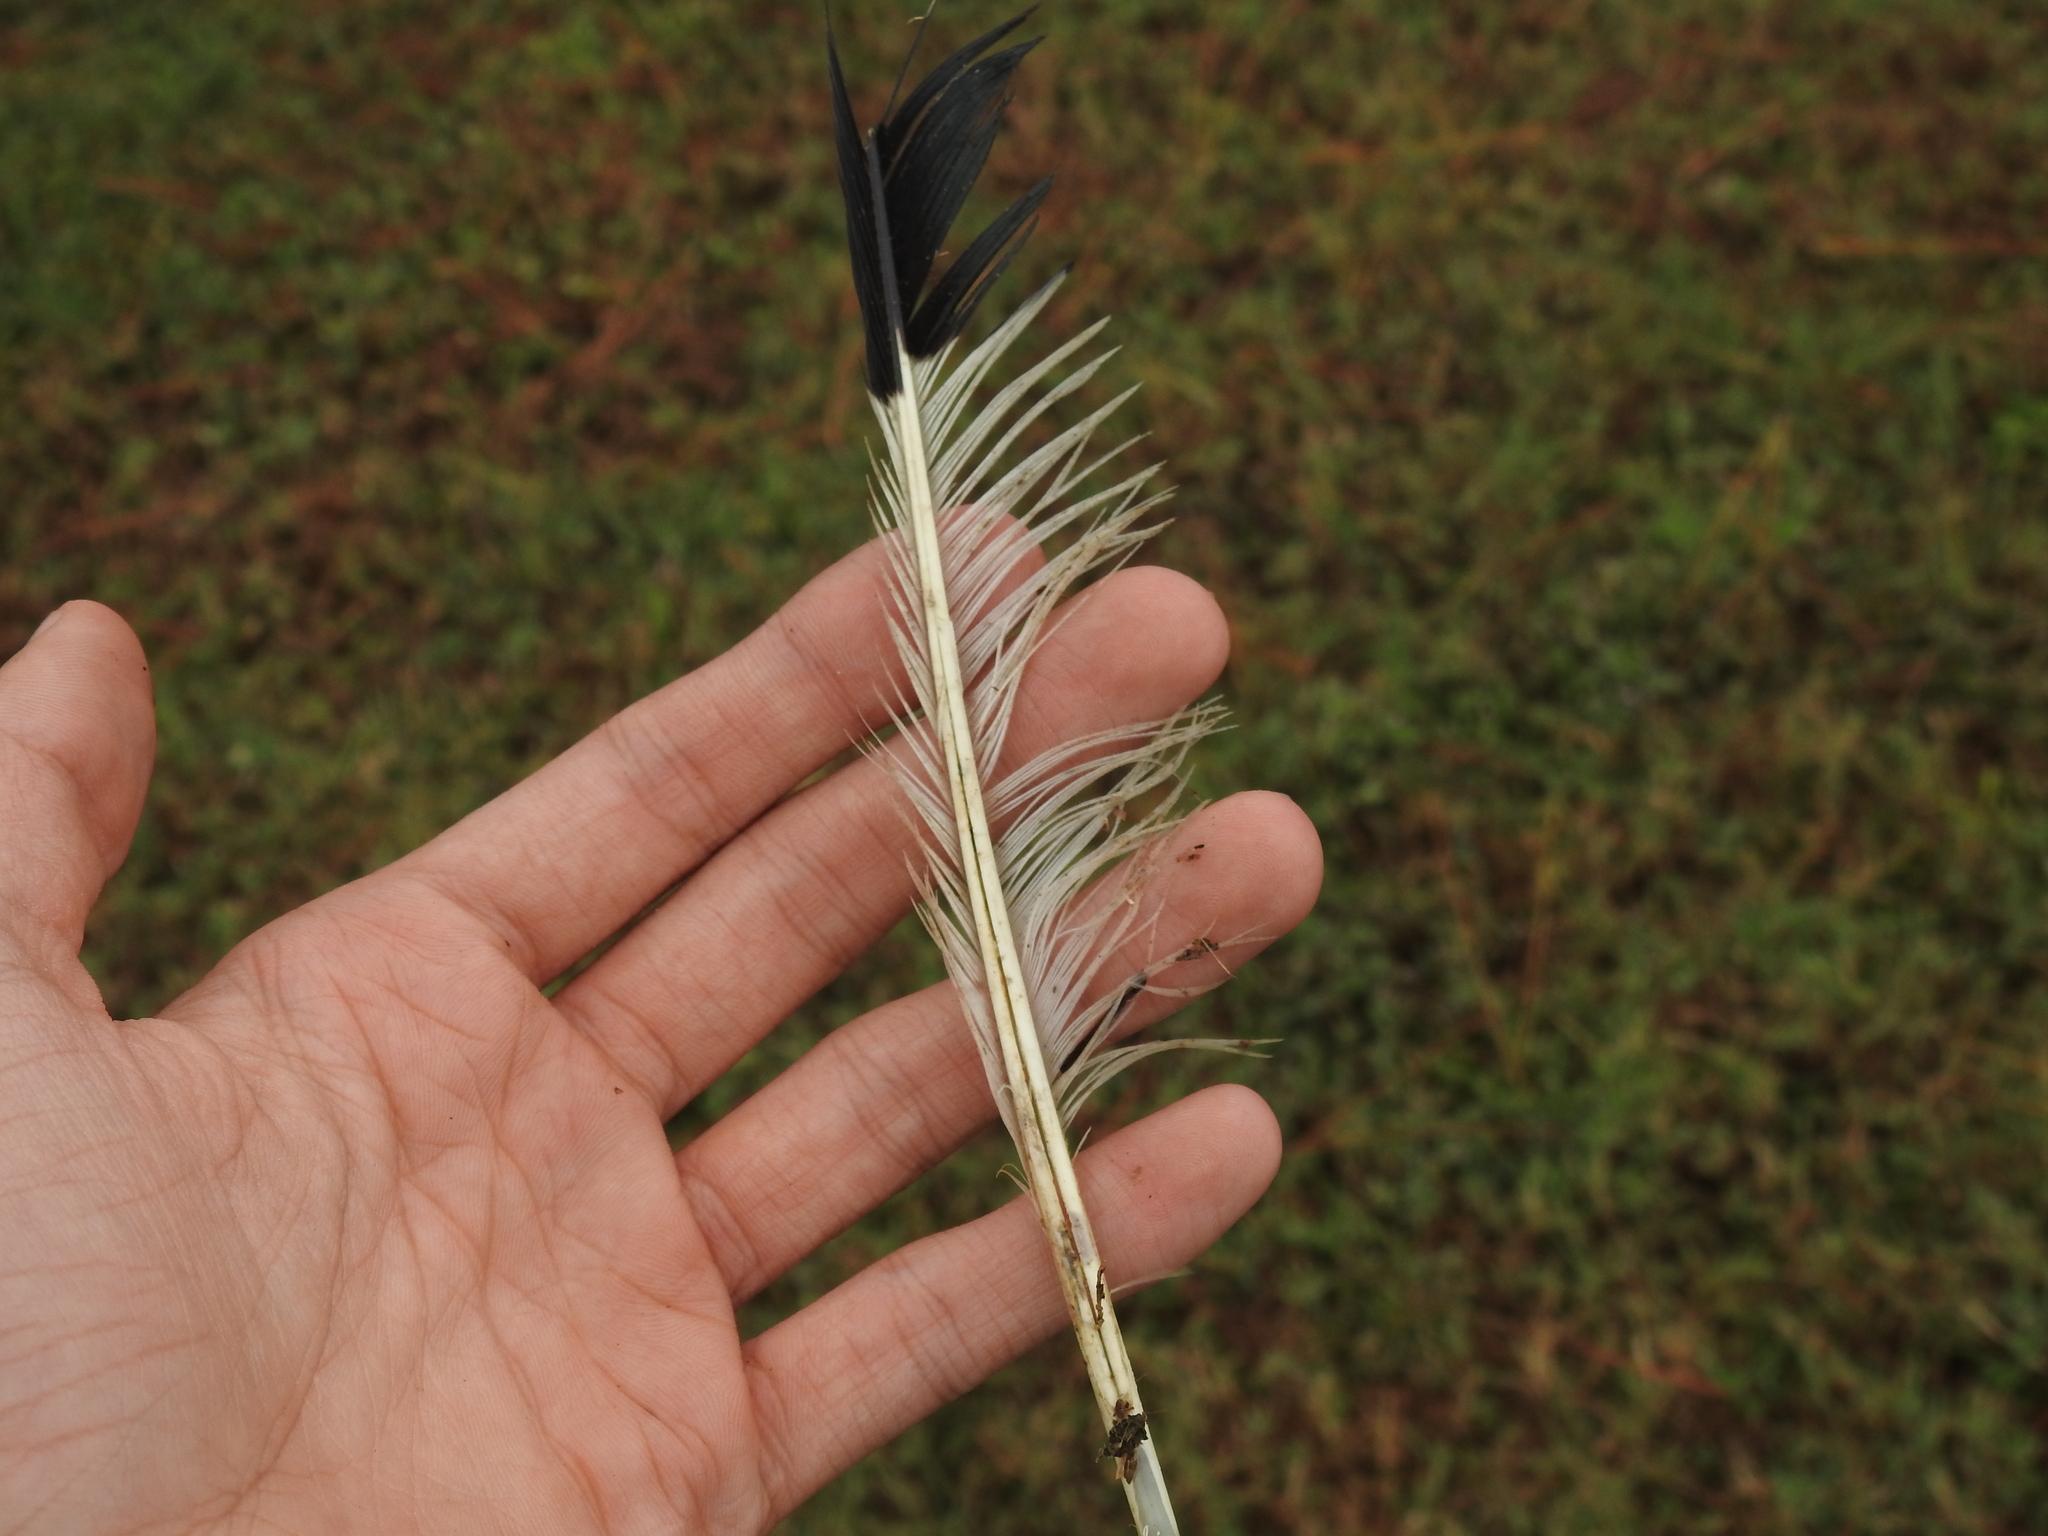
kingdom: Animalia
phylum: Chordata
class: Aves
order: Pelecaniformes
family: Threskiornithidae
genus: Eudocimus
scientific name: Eudocimus albus
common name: White ibis
